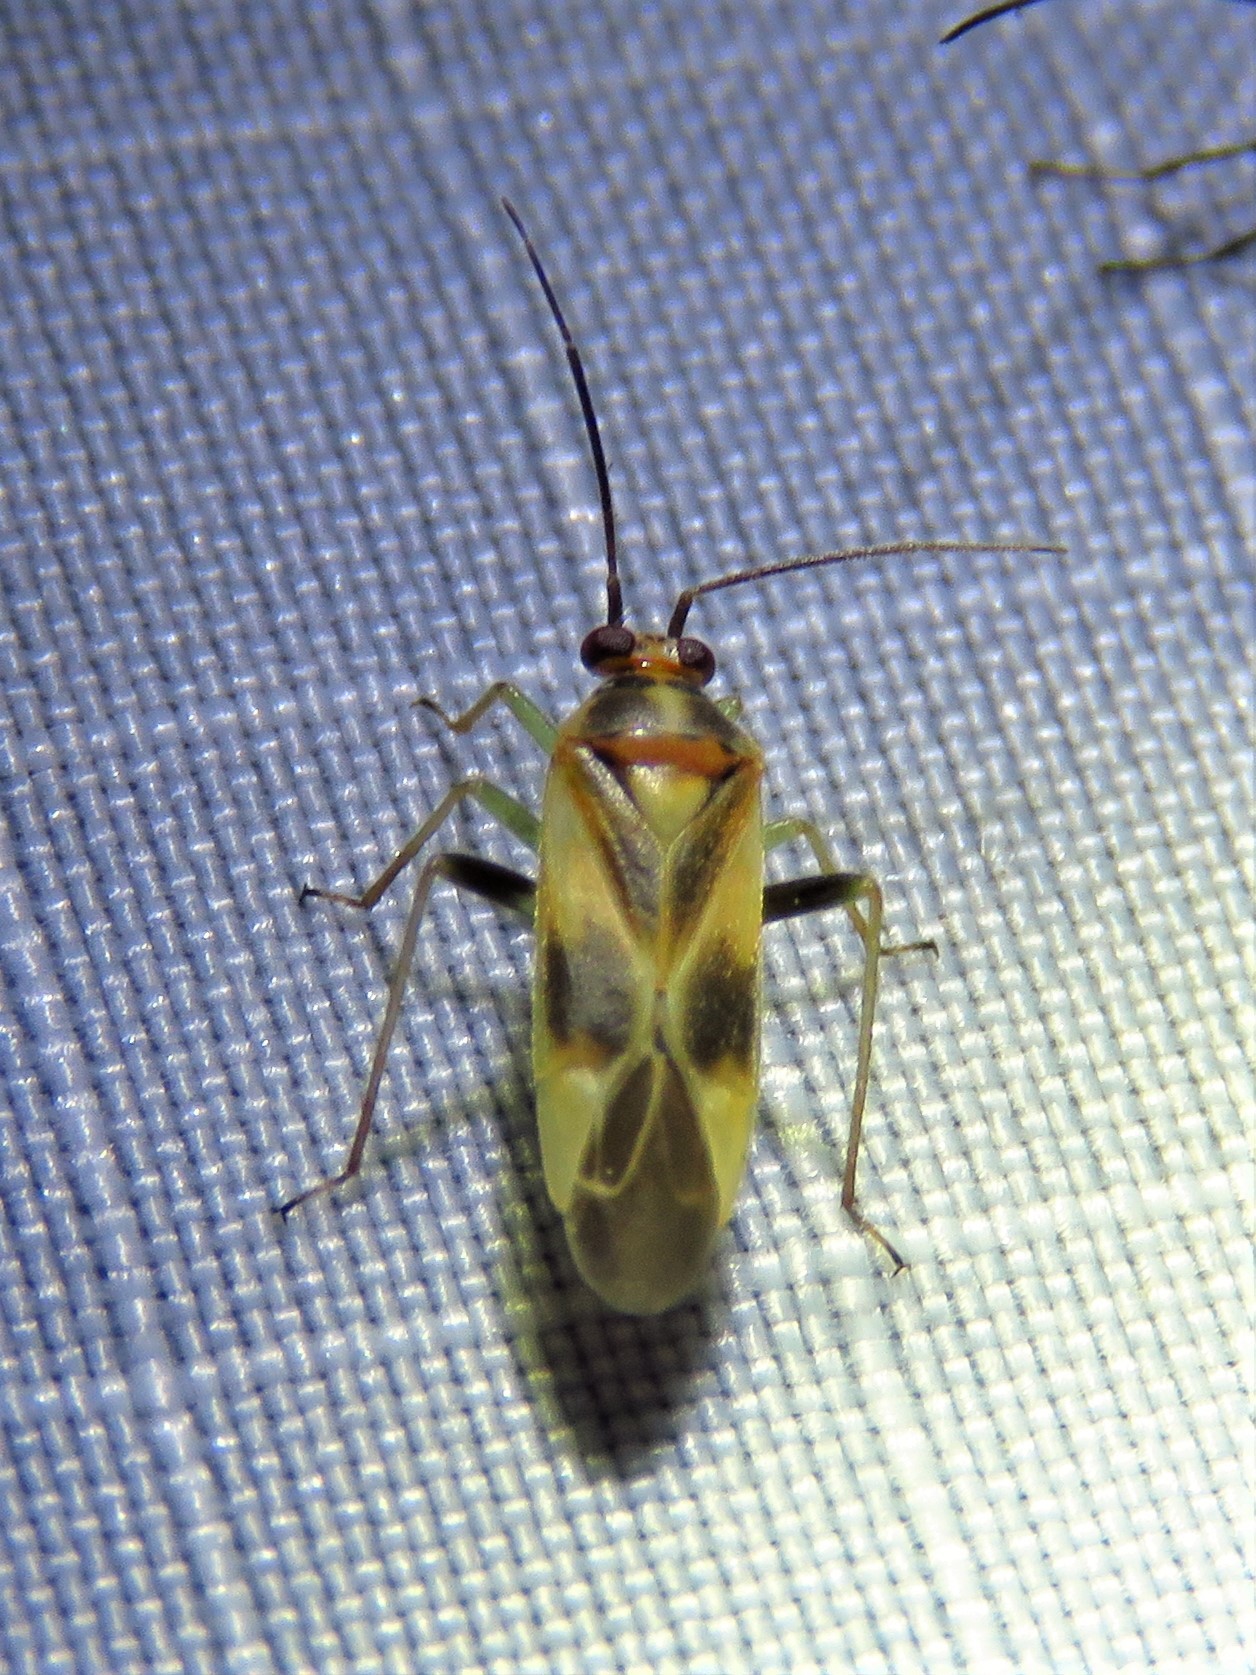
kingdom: Animalia
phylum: Arthropoda
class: Insecta
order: Hemiptera
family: Miridae
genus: Orthotylus
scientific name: Orthotylus ornatus
